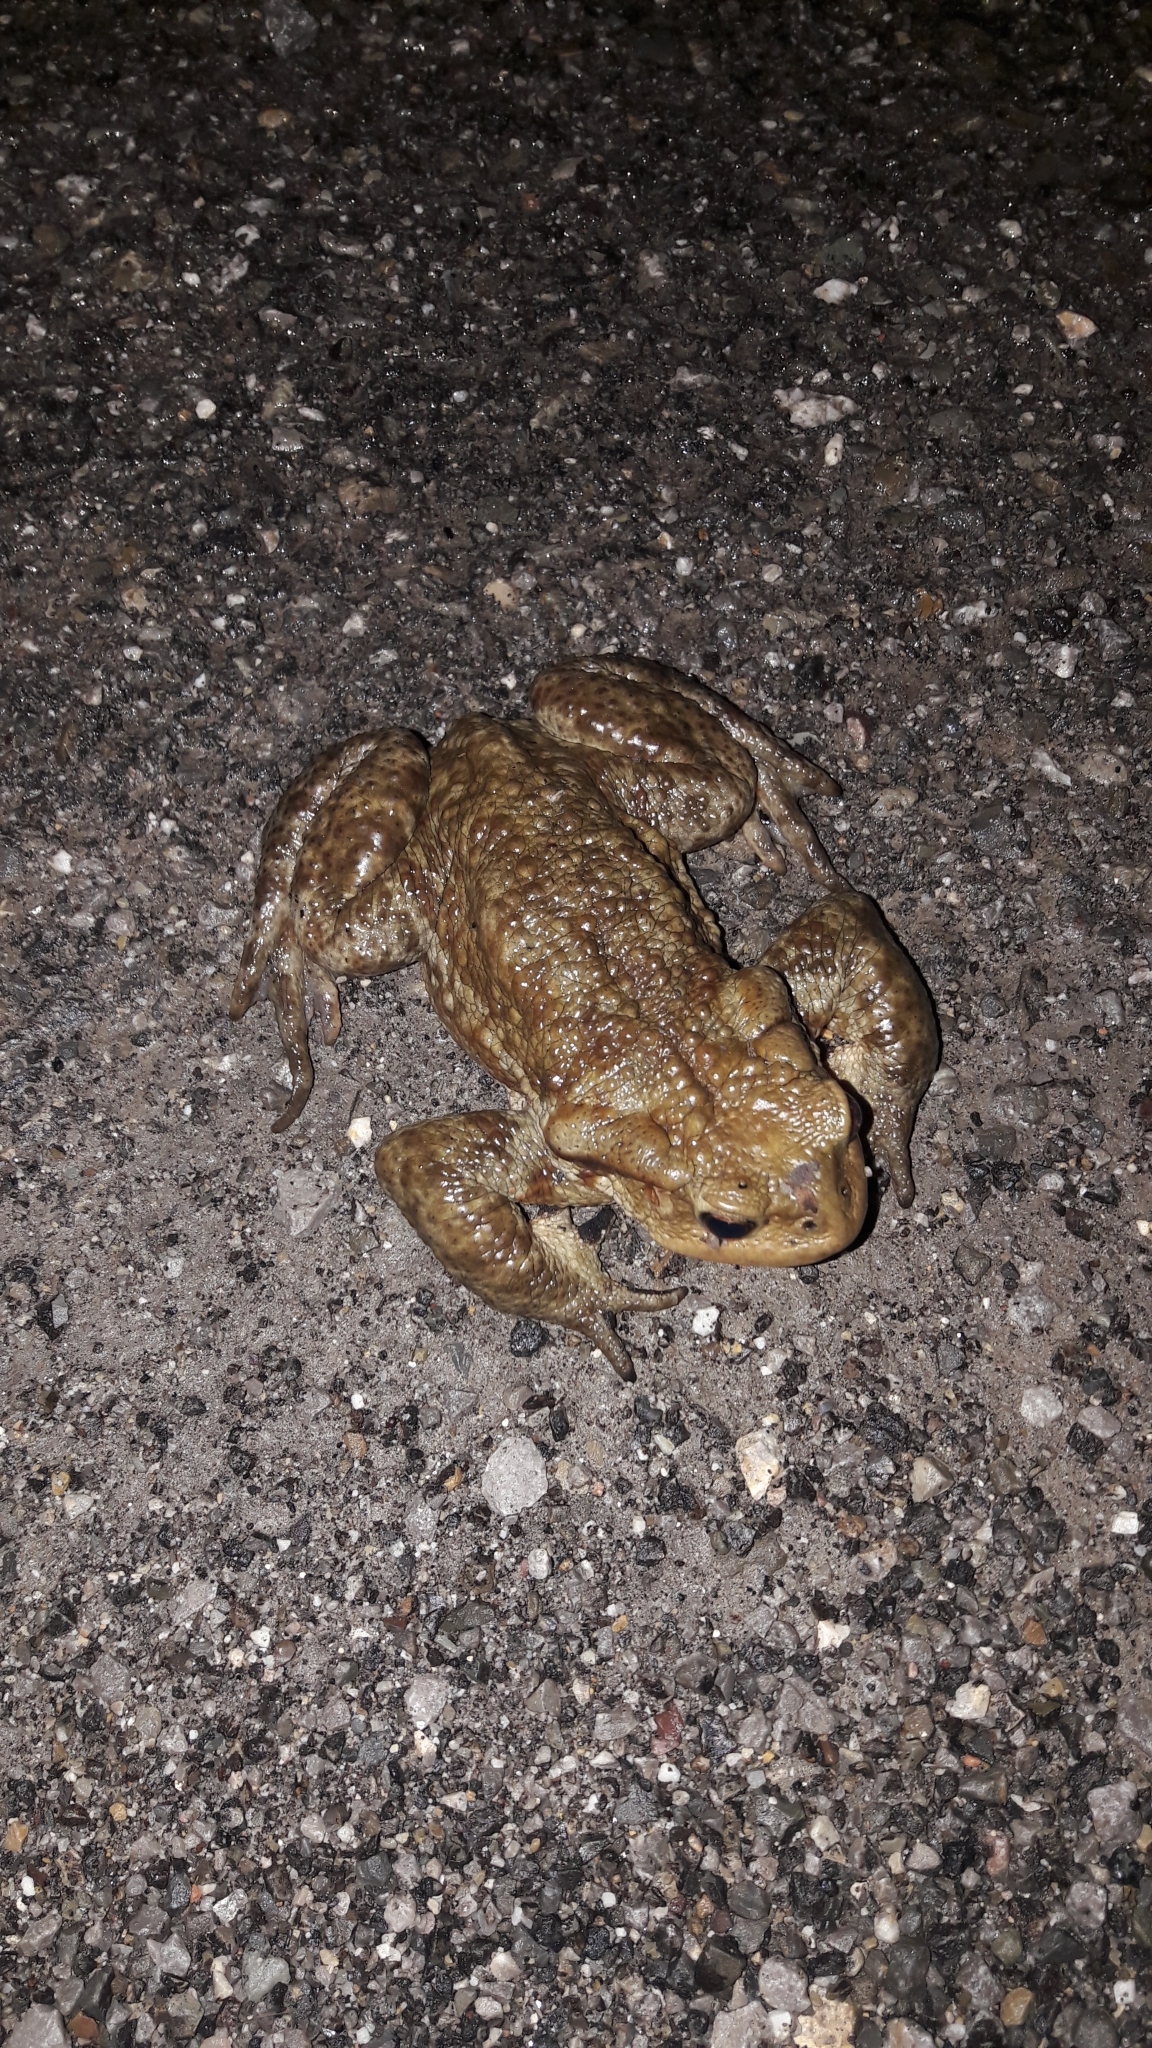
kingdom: Animalia
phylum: Chordata
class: Amphibia
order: Anura
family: Bufonidae
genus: Bufo
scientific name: Bufo bufo
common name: Common toad
